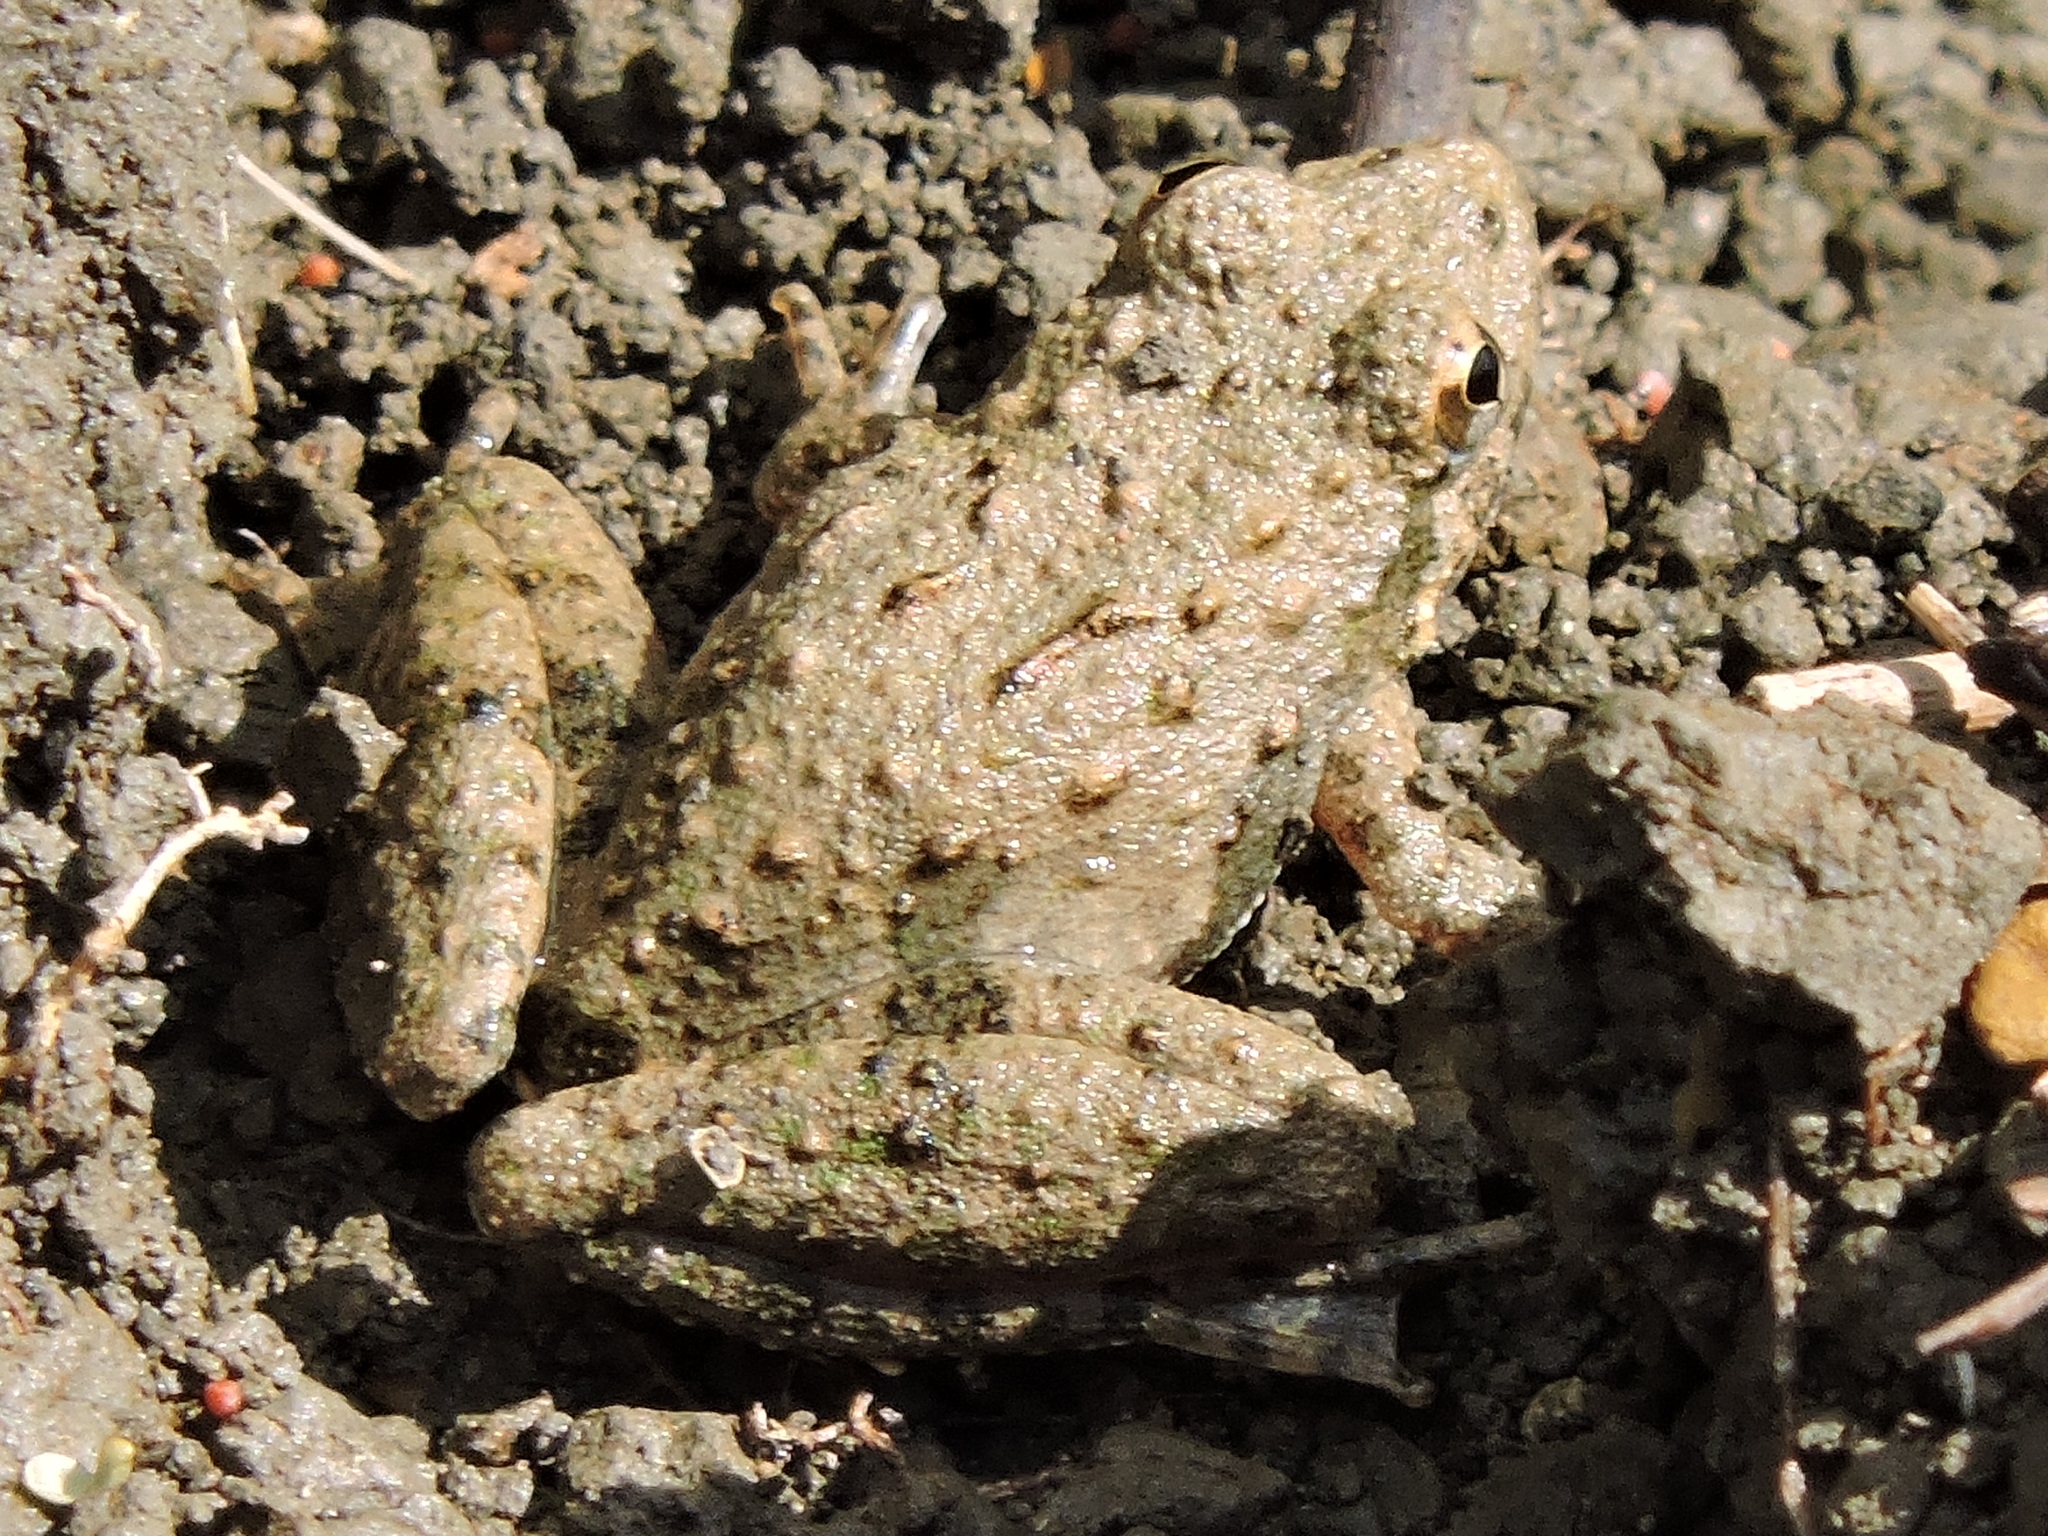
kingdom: Animalia
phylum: Chordata
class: Amphibia
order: Anura
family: Hylidae
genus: Acris
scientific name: Acris blanchardi
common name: Blanchard's cricket frog
